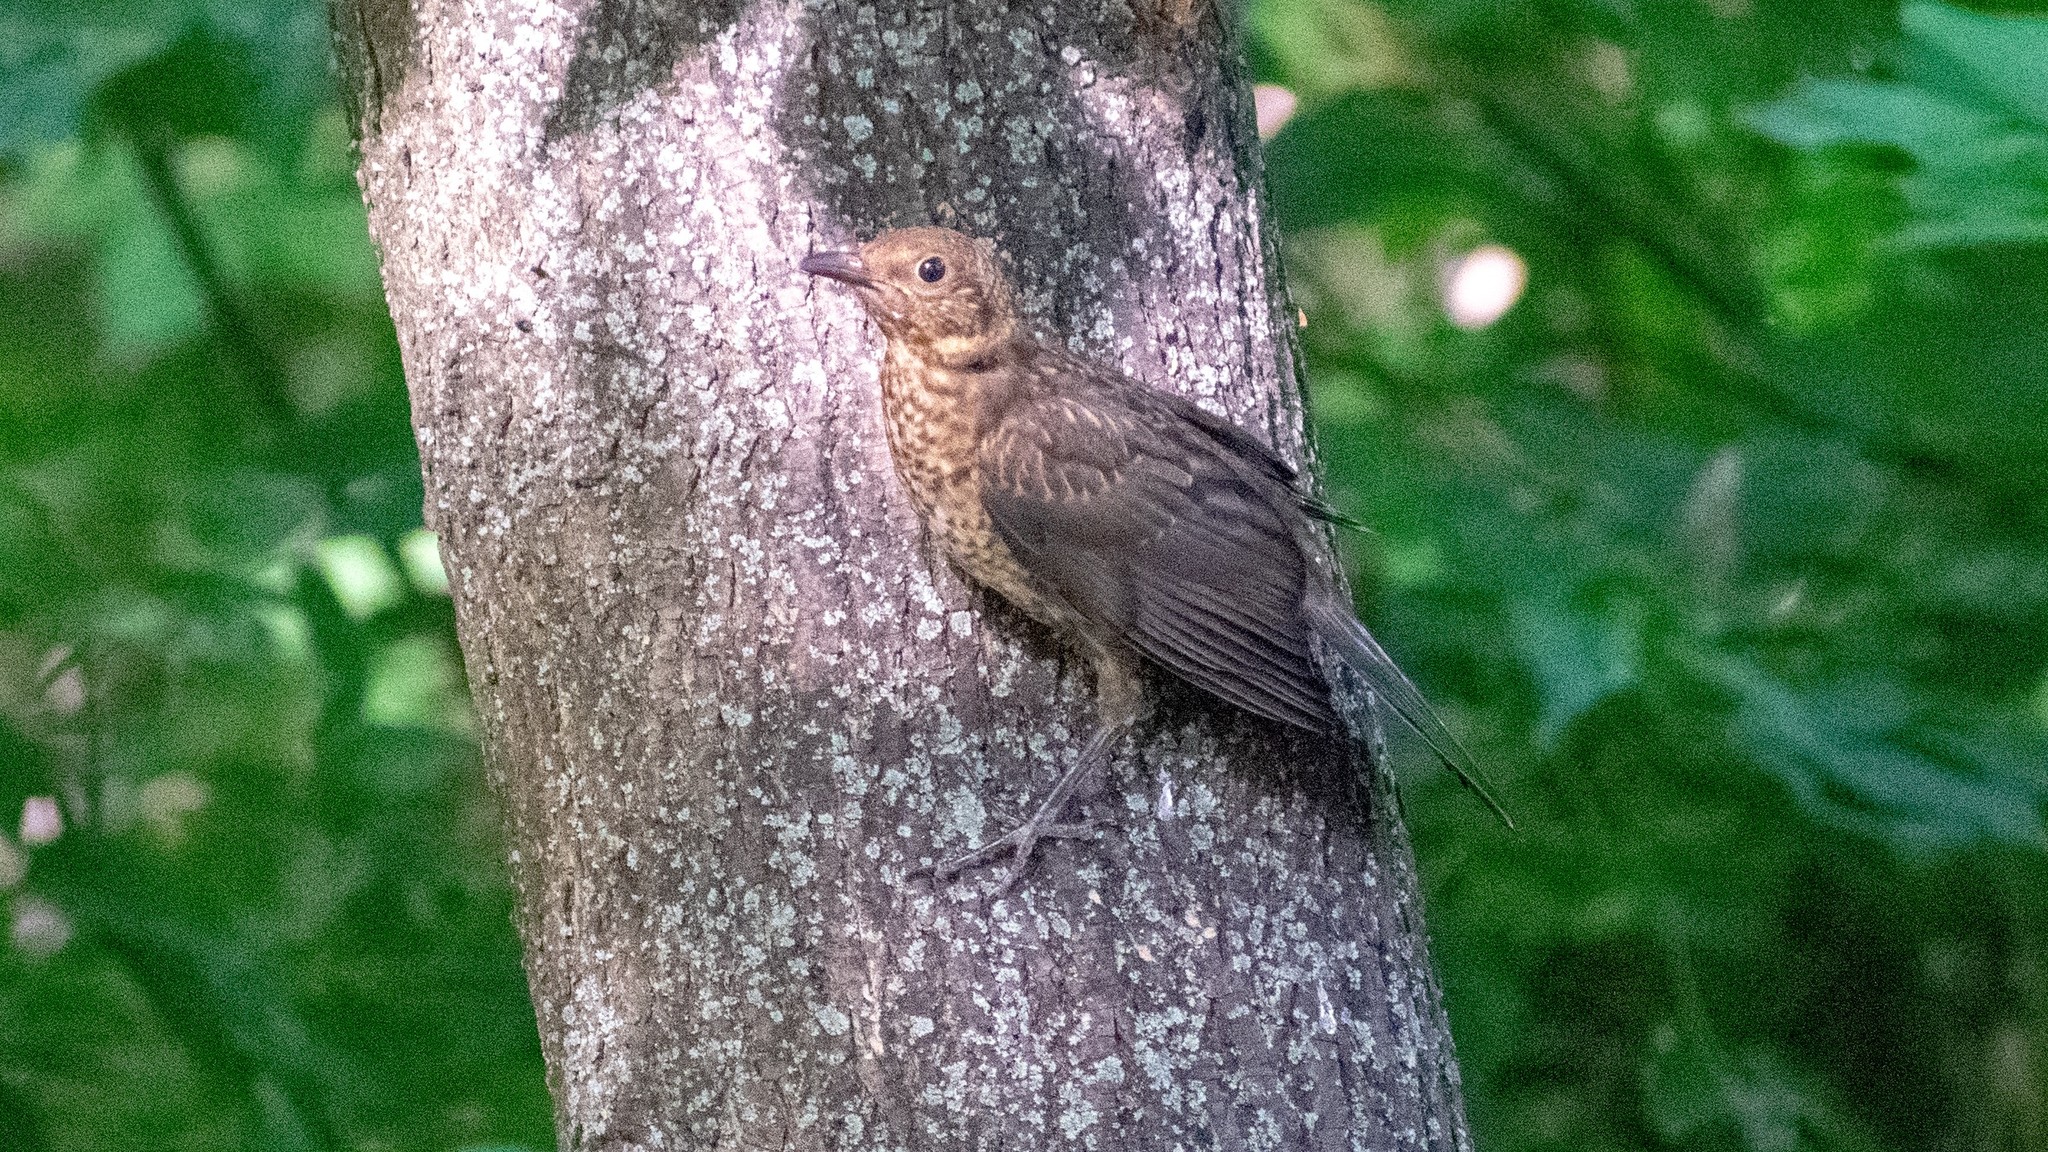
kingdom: Animalia
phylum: Chordata
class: Aves
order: Passeriformes
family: Turdidae
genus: Turdus
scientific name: Turdus merula
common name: Common blackbird
